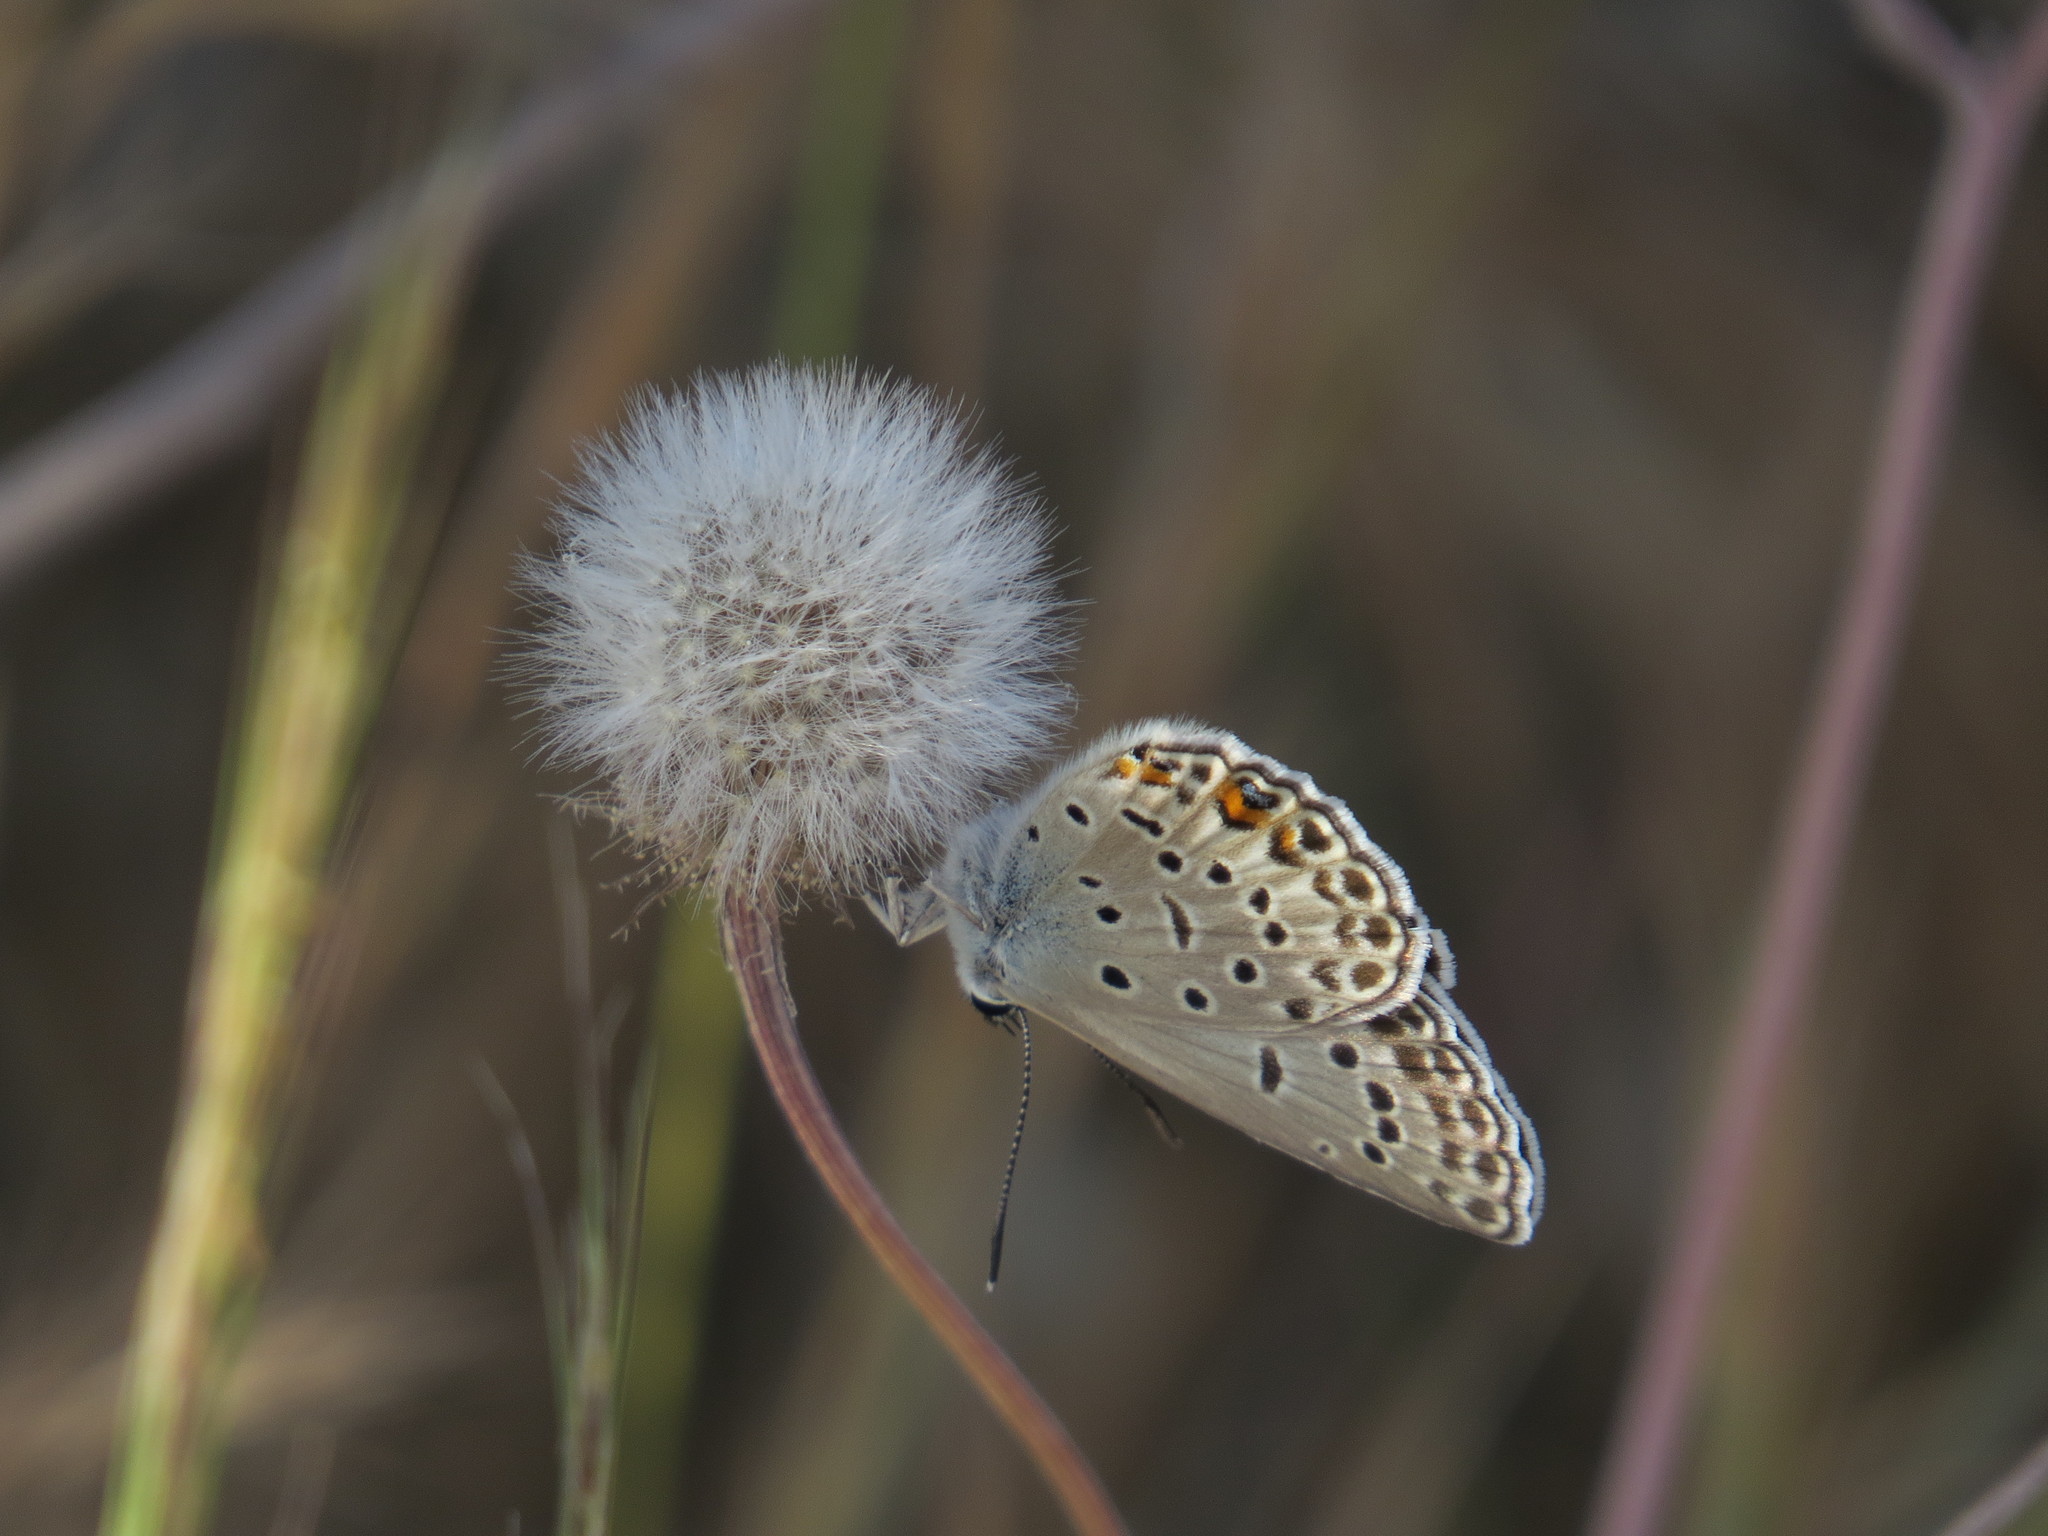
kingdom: Animalia
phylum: Arthropoda
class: Insecta
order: Lepidoptera
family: Lycaenidae
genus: Plebejidea
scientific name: Plebejidea loewi
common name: Loew's blue
